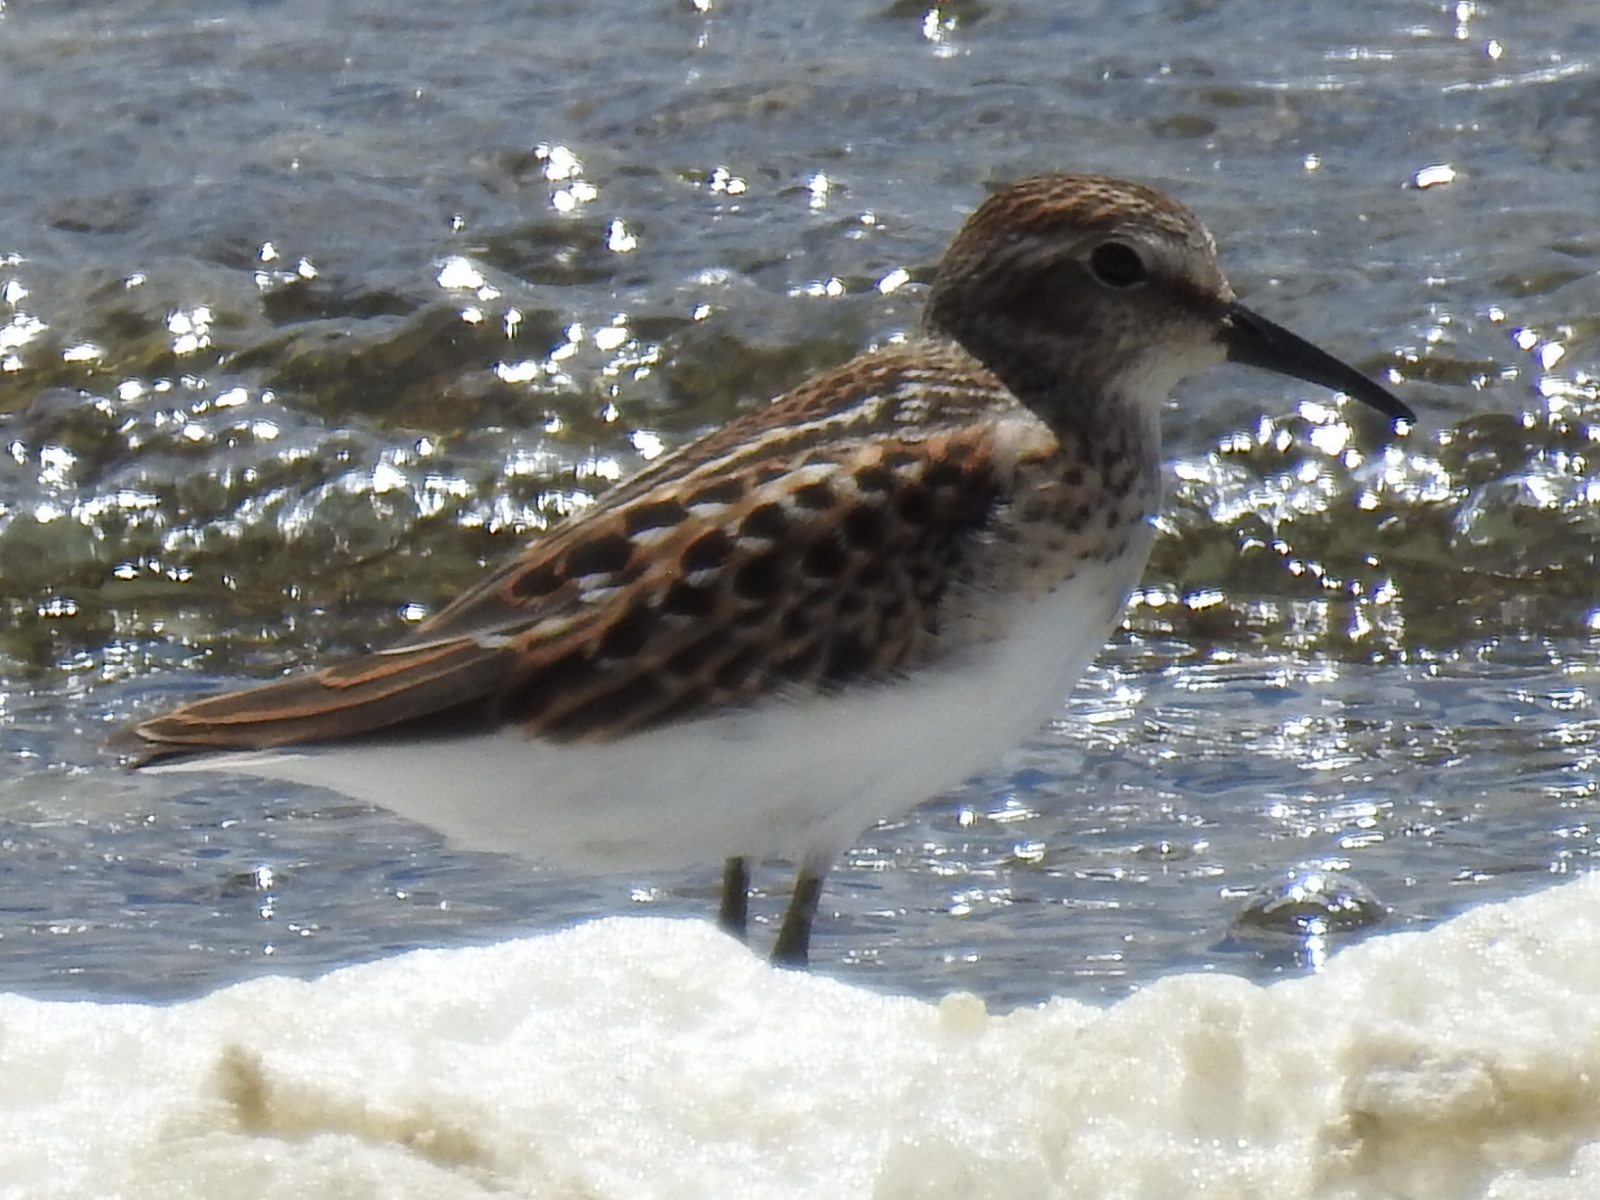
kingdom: Animalia
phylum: Chordata
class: Aves
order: Charadriiformes
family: Scolopacidae
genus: Calidris
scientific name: Calidris minutilla
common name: Least sandpiper
